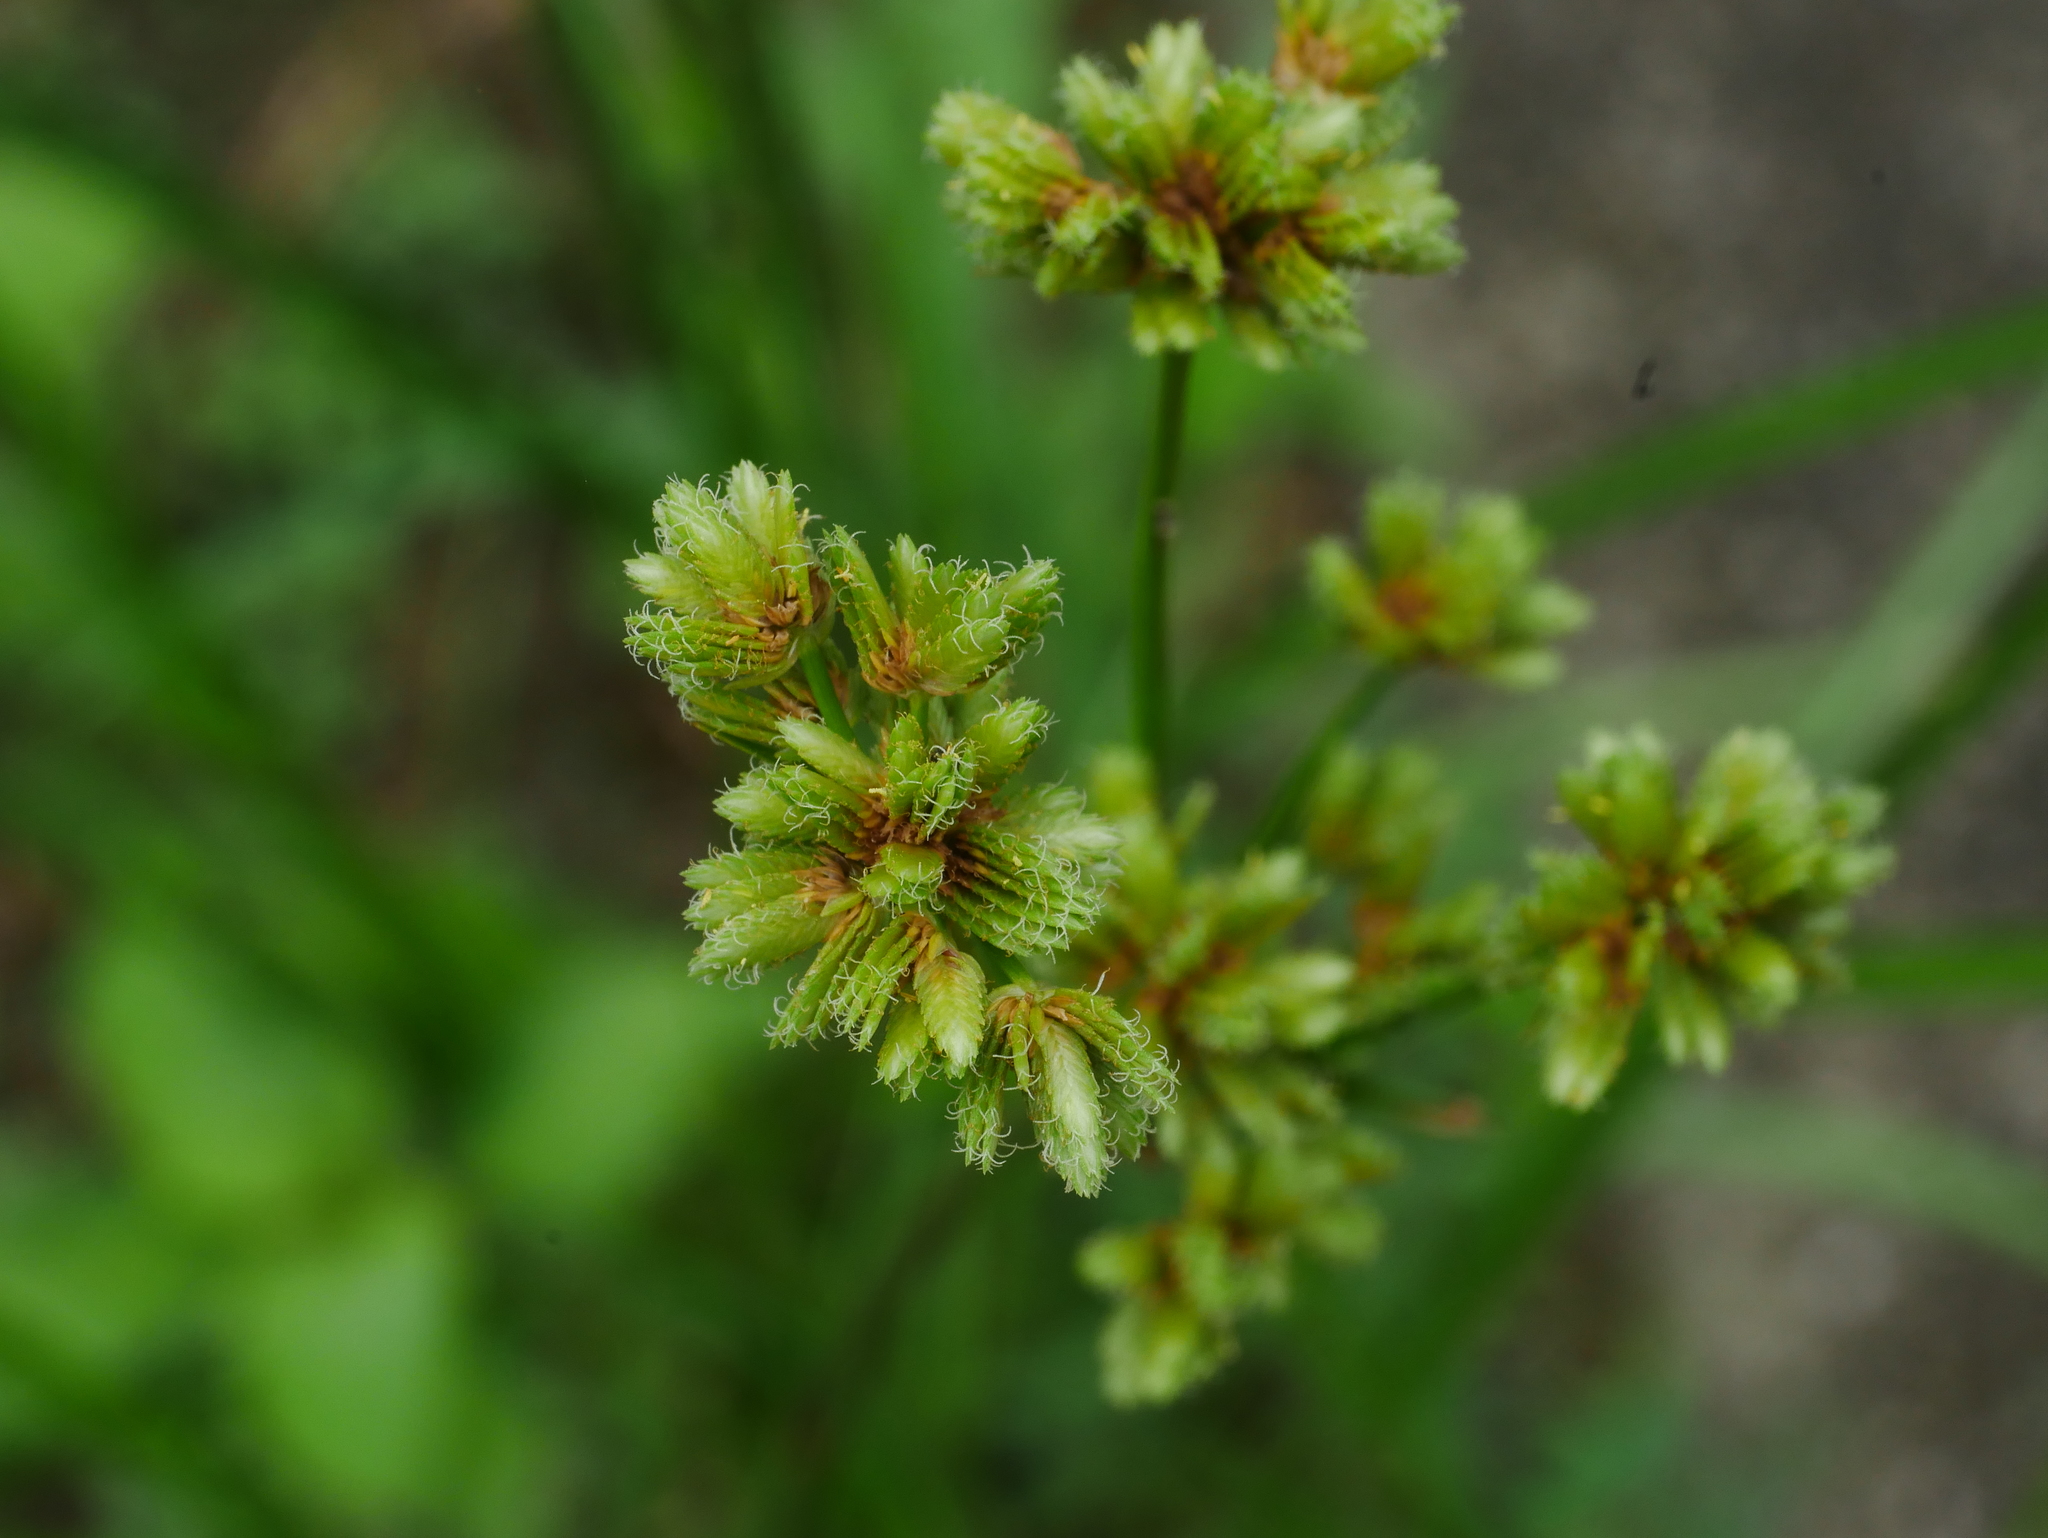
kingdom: Plantae
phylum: Tracheophyta
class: Liliopsida
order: Poales
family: Cyperaceae
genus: Cyperus
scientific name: Cyperus surinamensis
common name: Tropical flat sedge
